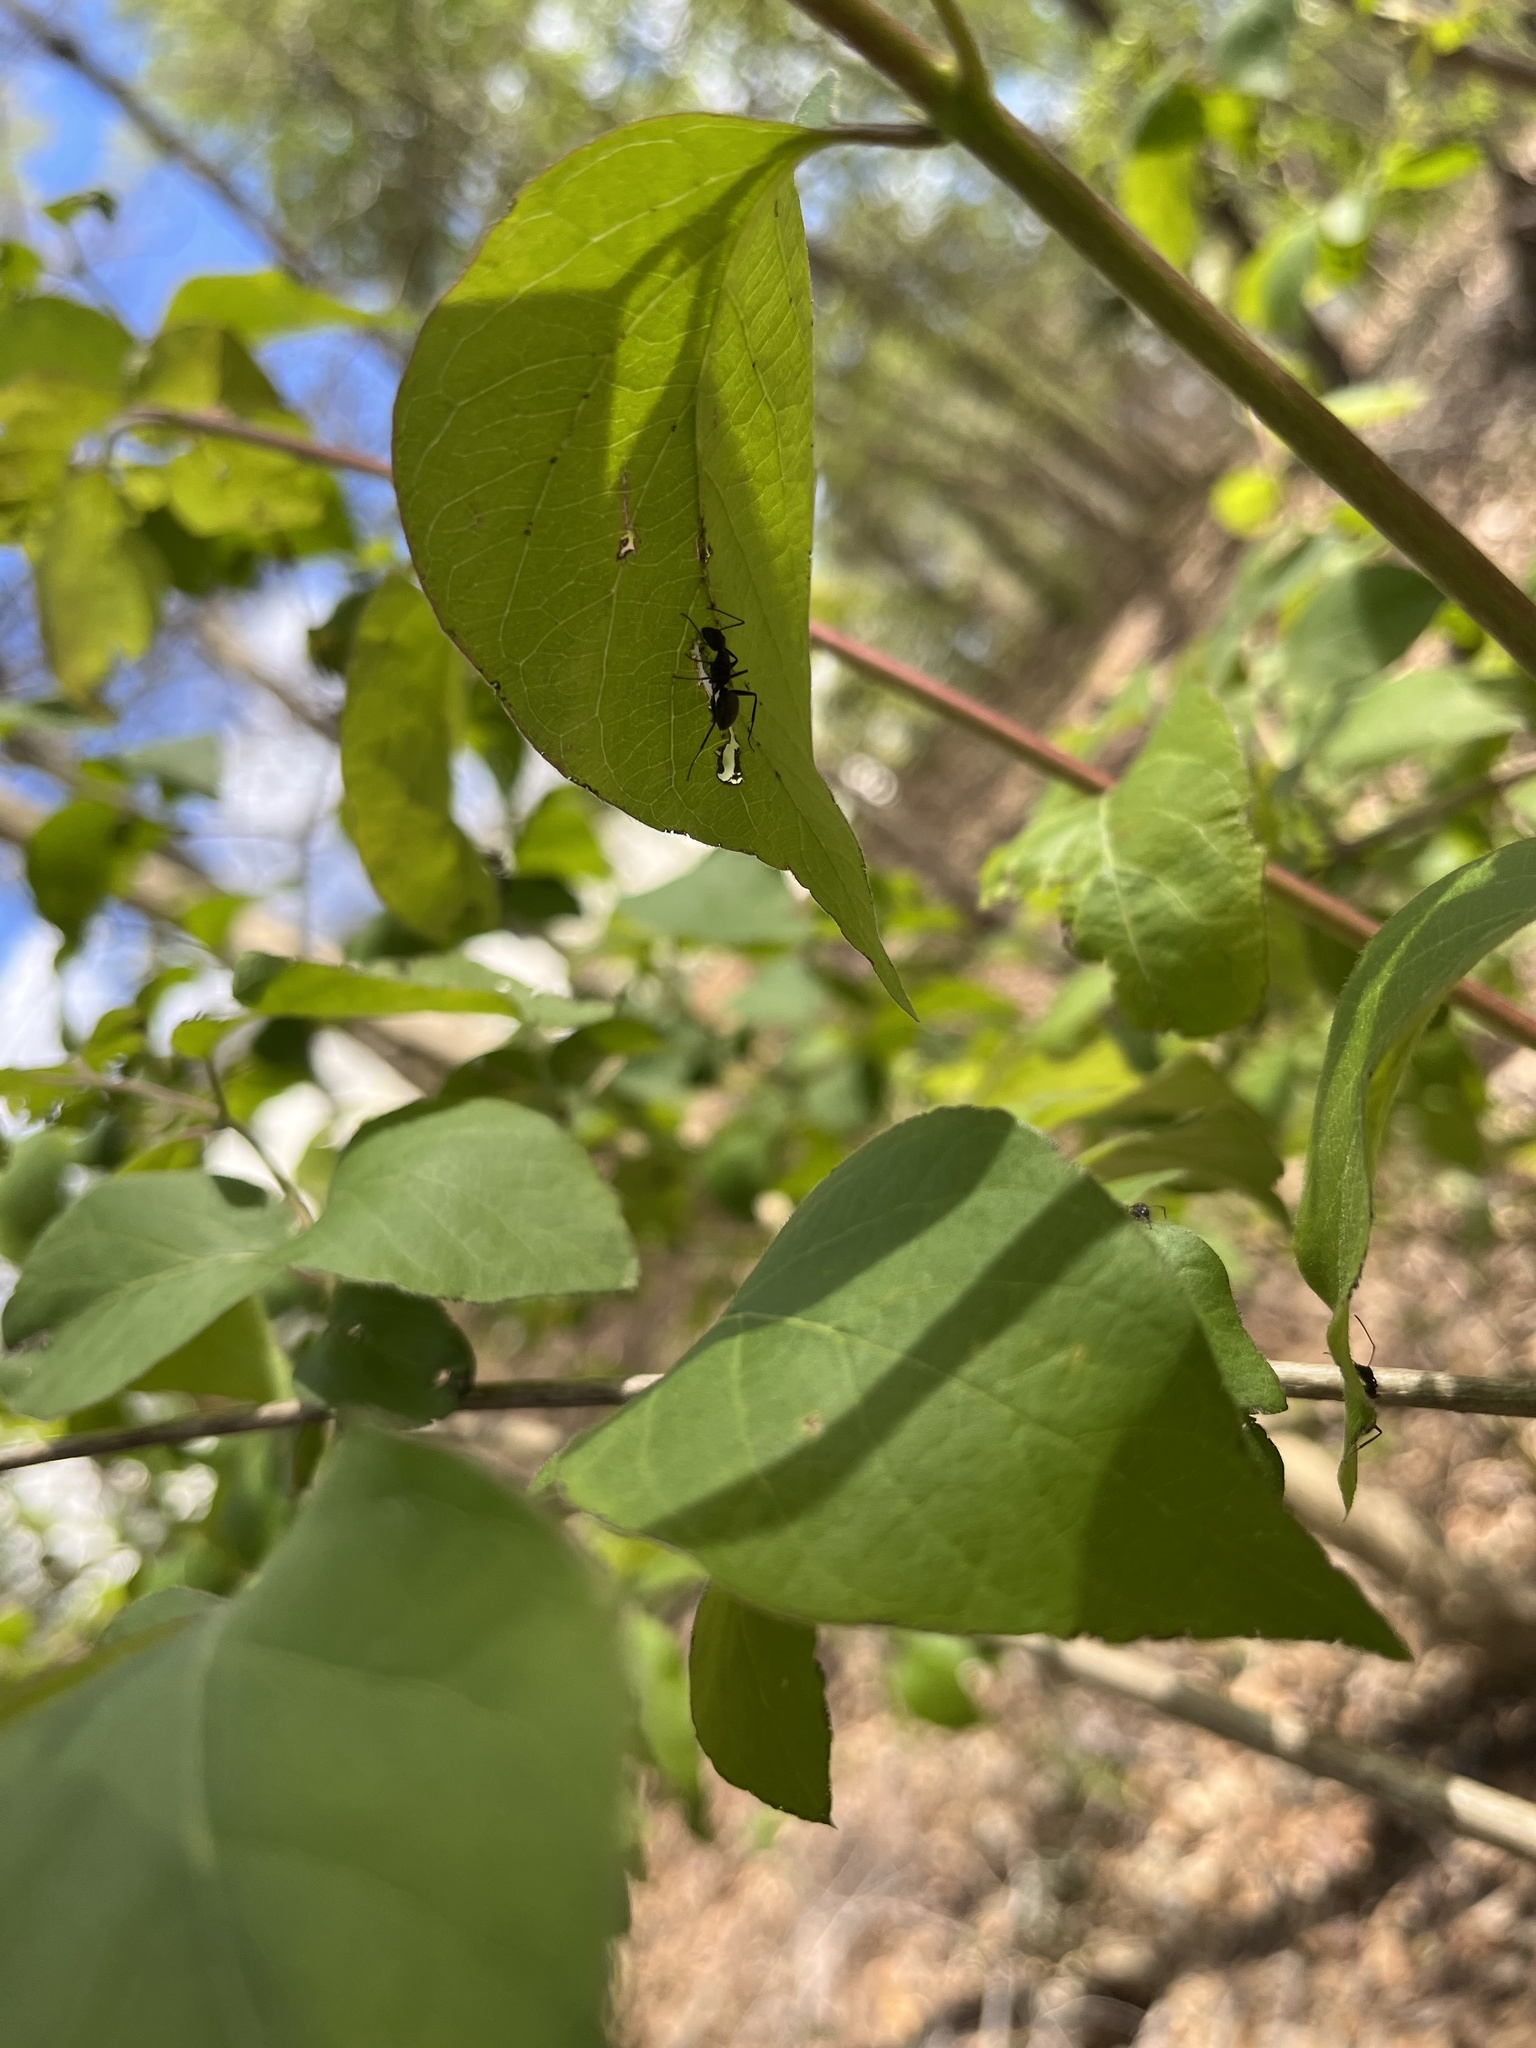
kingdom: Animalia
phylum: Arthropoda
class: Insecta
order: Hymenoptera
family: Formicidae
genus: Camponotus
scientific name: Camponotus pennsylvanicus
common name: Black carpenter ant
